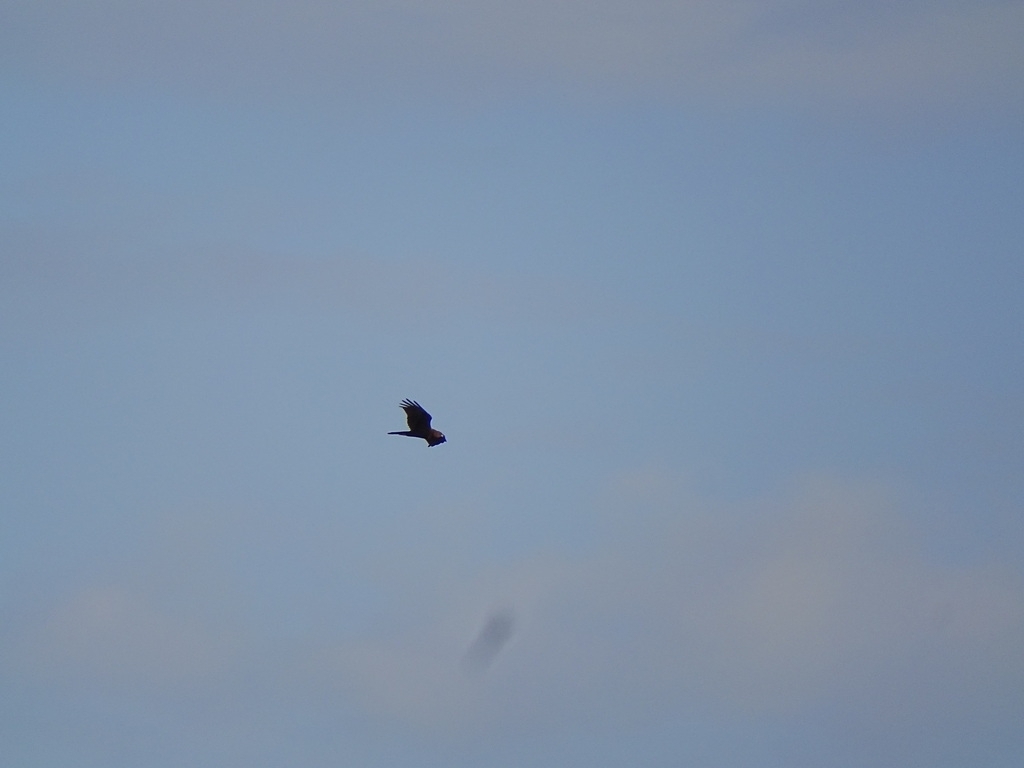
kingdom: Animalia
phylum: Chordata
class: Aves
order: Accipitriformes
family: Accipitridae
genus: Circus
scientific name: Circus aeruginosus
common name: Western marsh harrier
